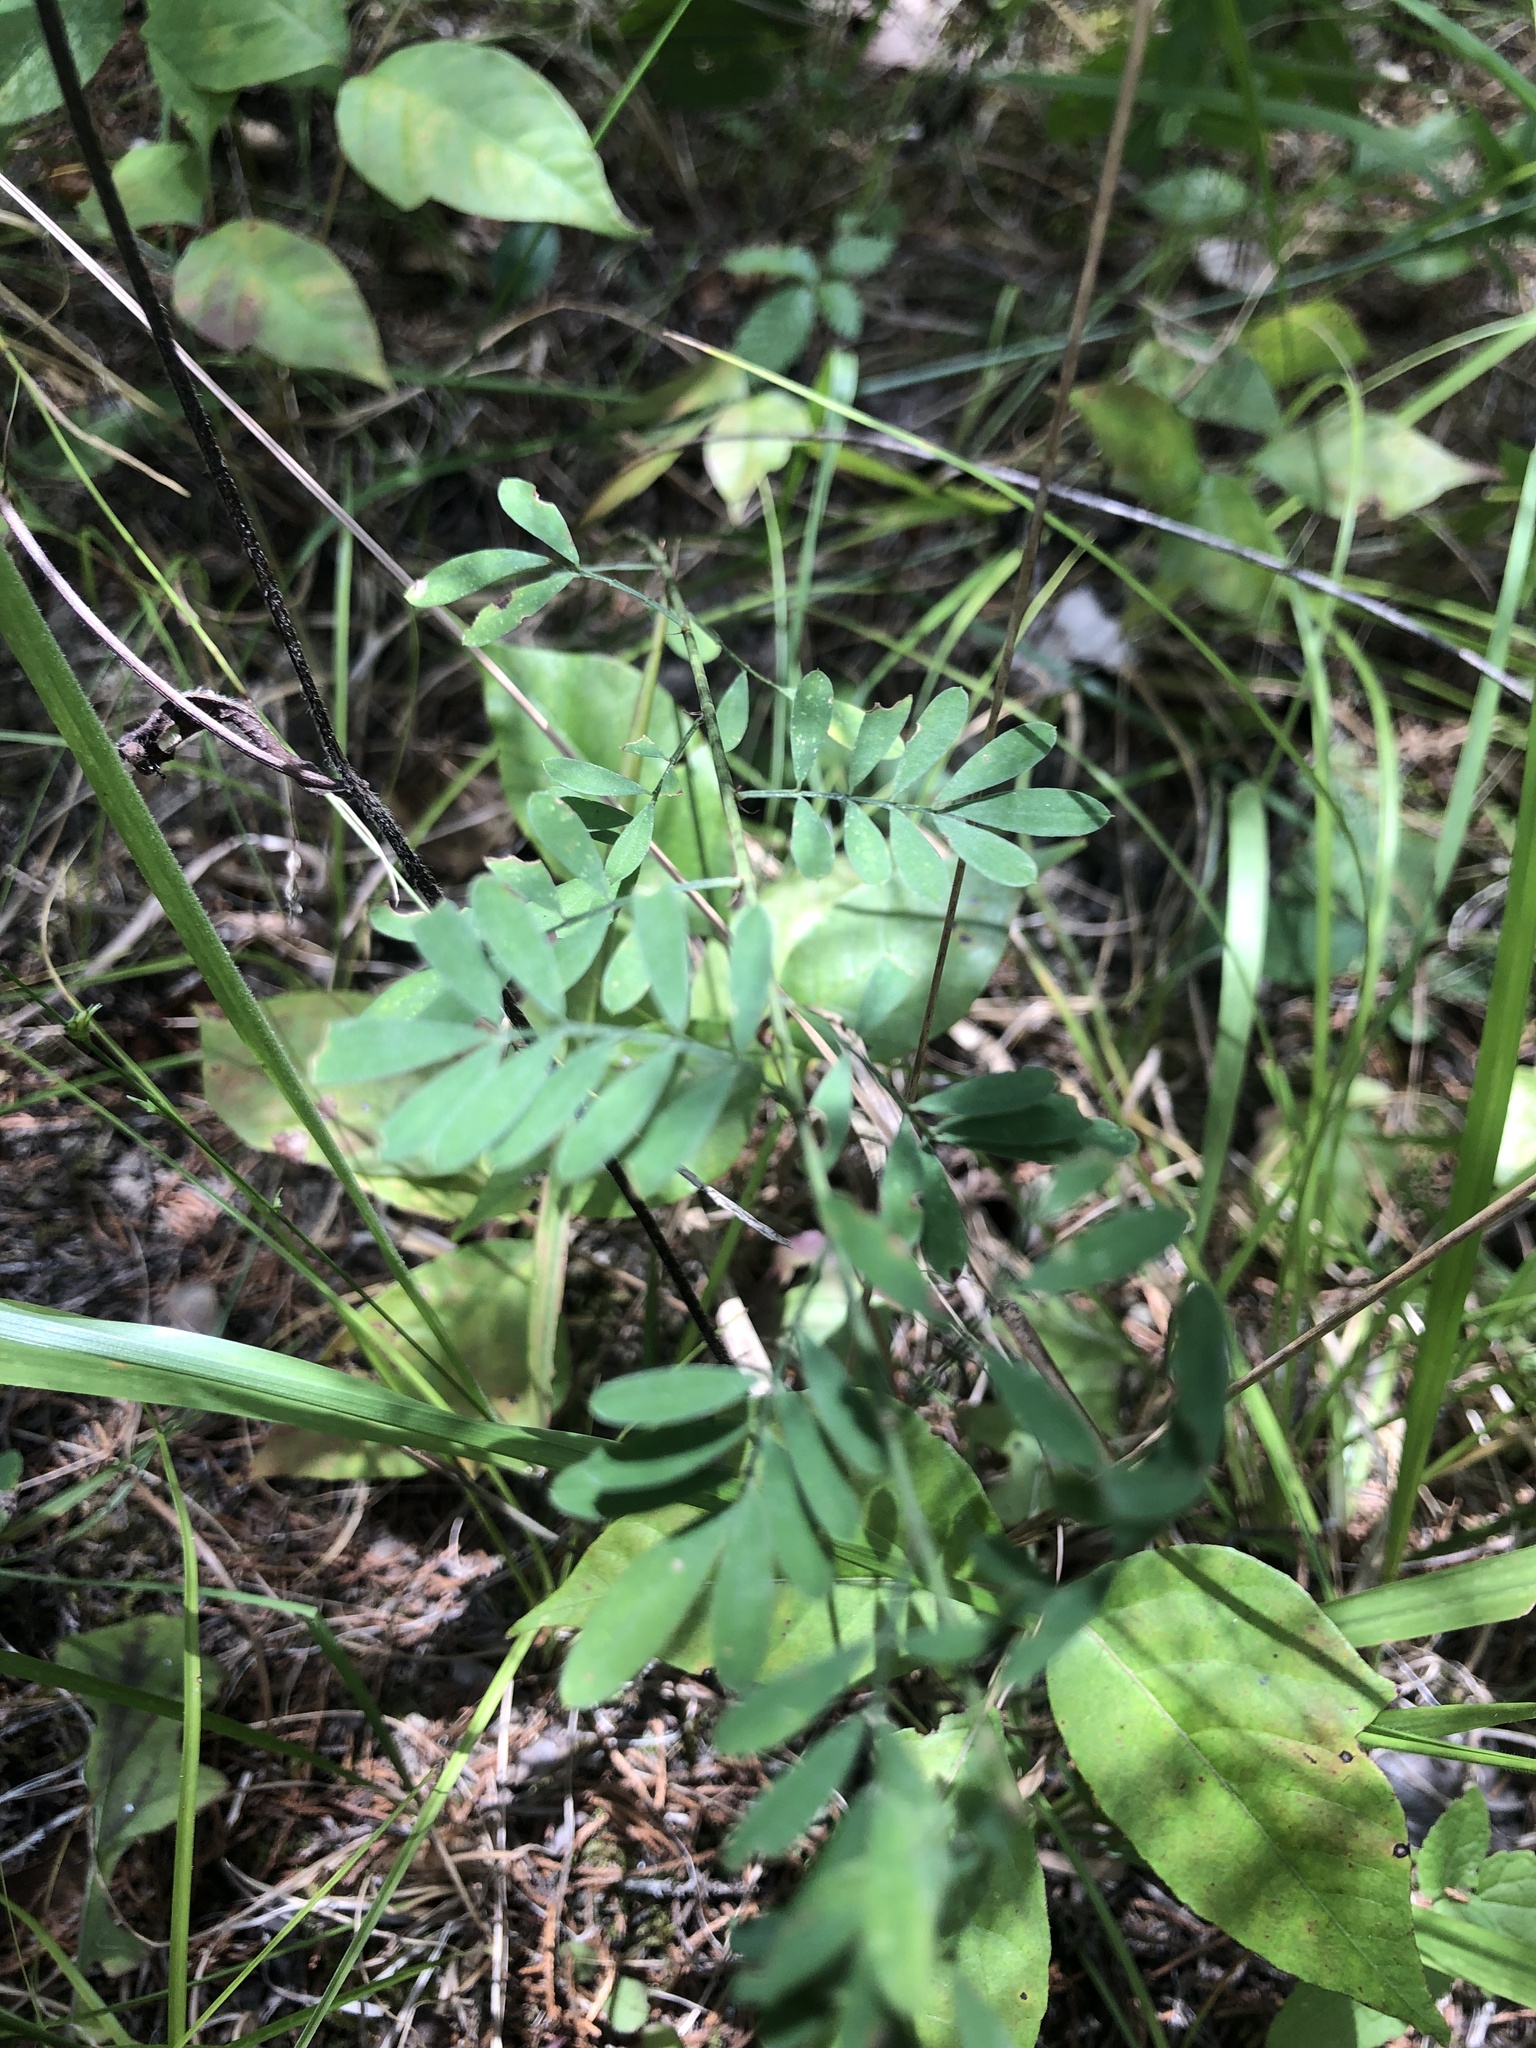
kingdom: Plantae
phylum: Tracheophyta
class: Magnoliopsida
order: Fabales
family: Fabaceae
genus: Dalea
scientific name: Dalea candida
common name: White prairie-clover
